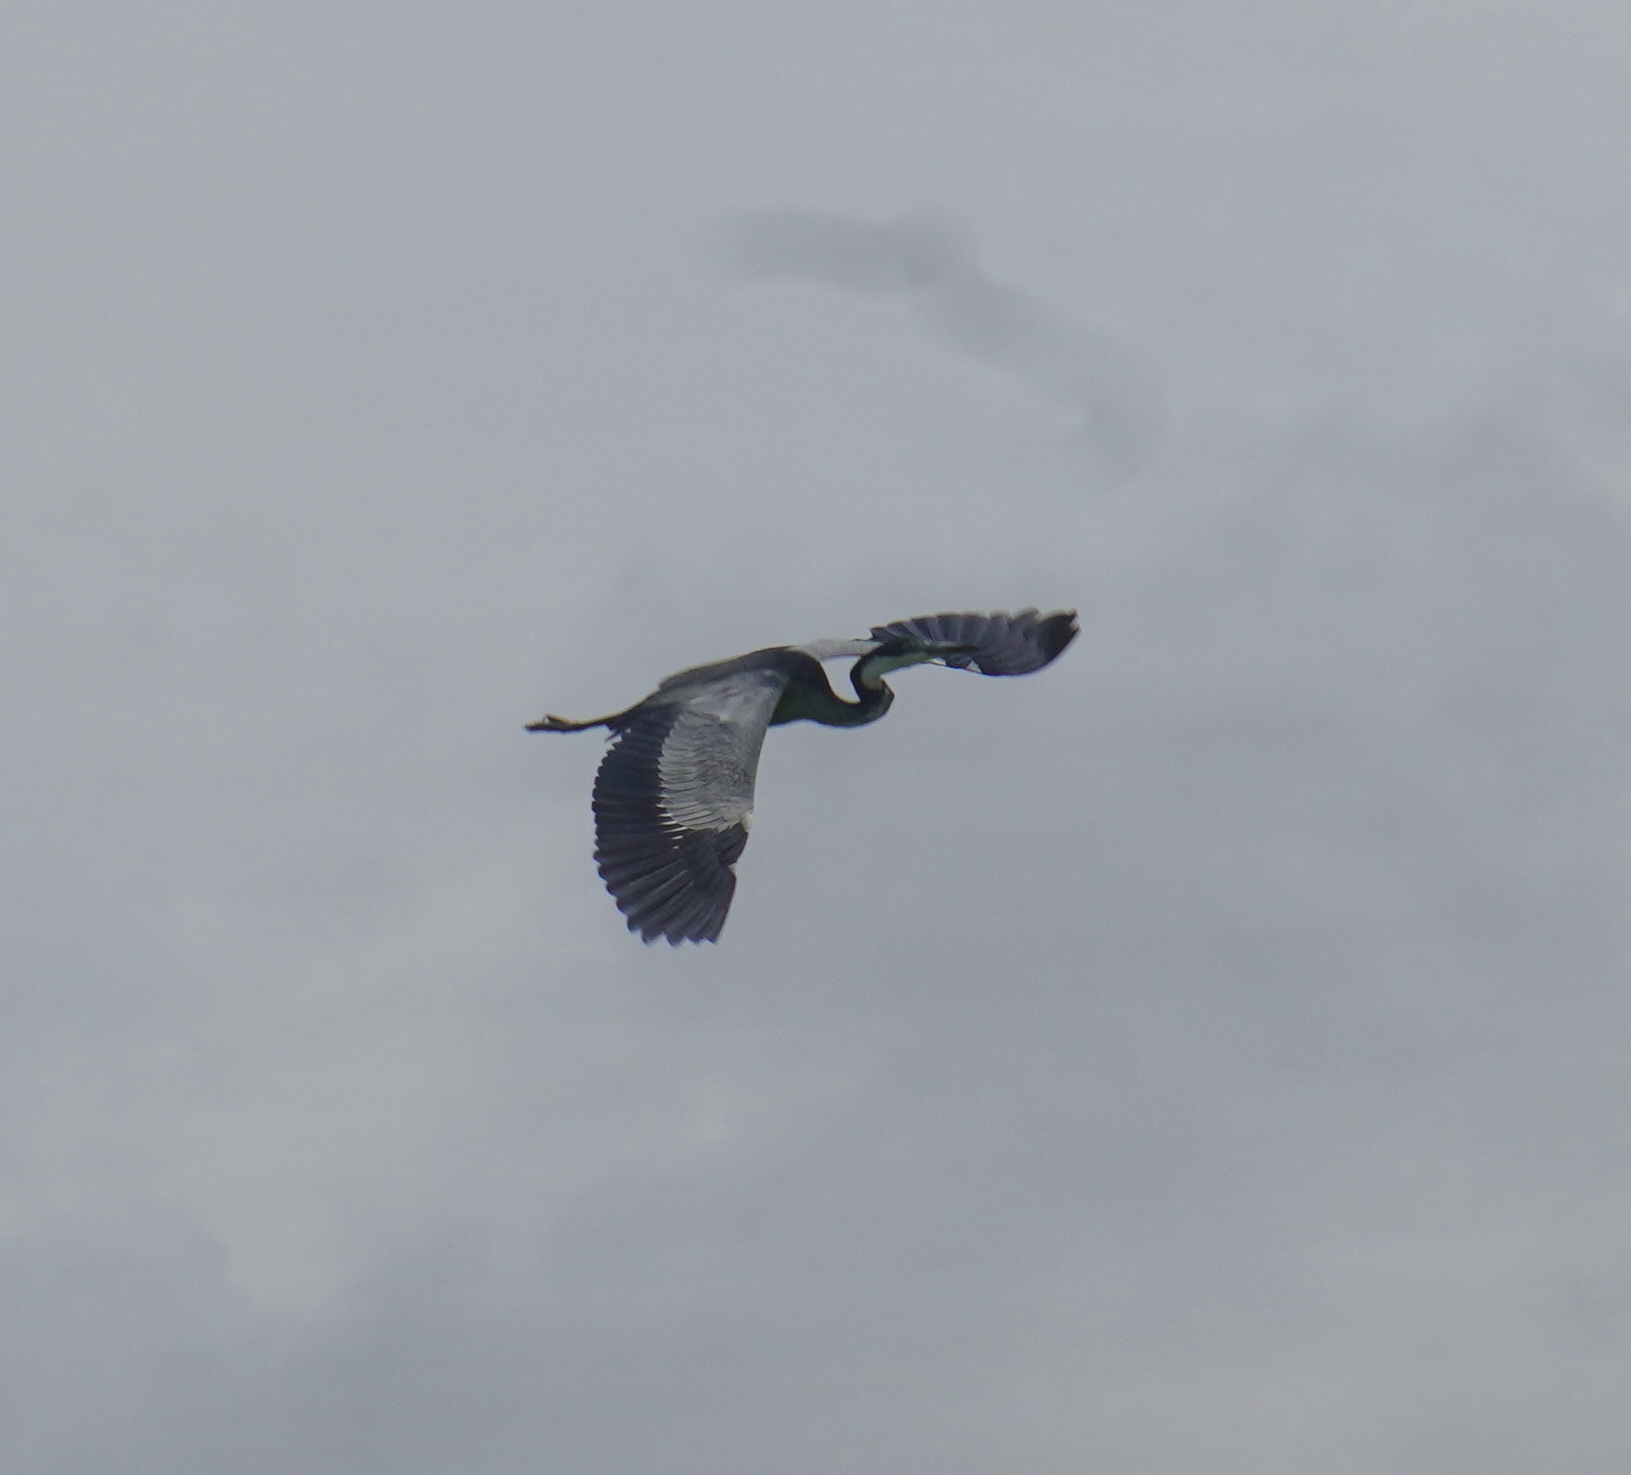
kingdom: Animalia
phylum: Chordata
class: Aves
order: Pelecaniformes
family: Ardeidae
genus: Ardea
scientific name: Ardea melanocephala
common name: Black-headed heron
